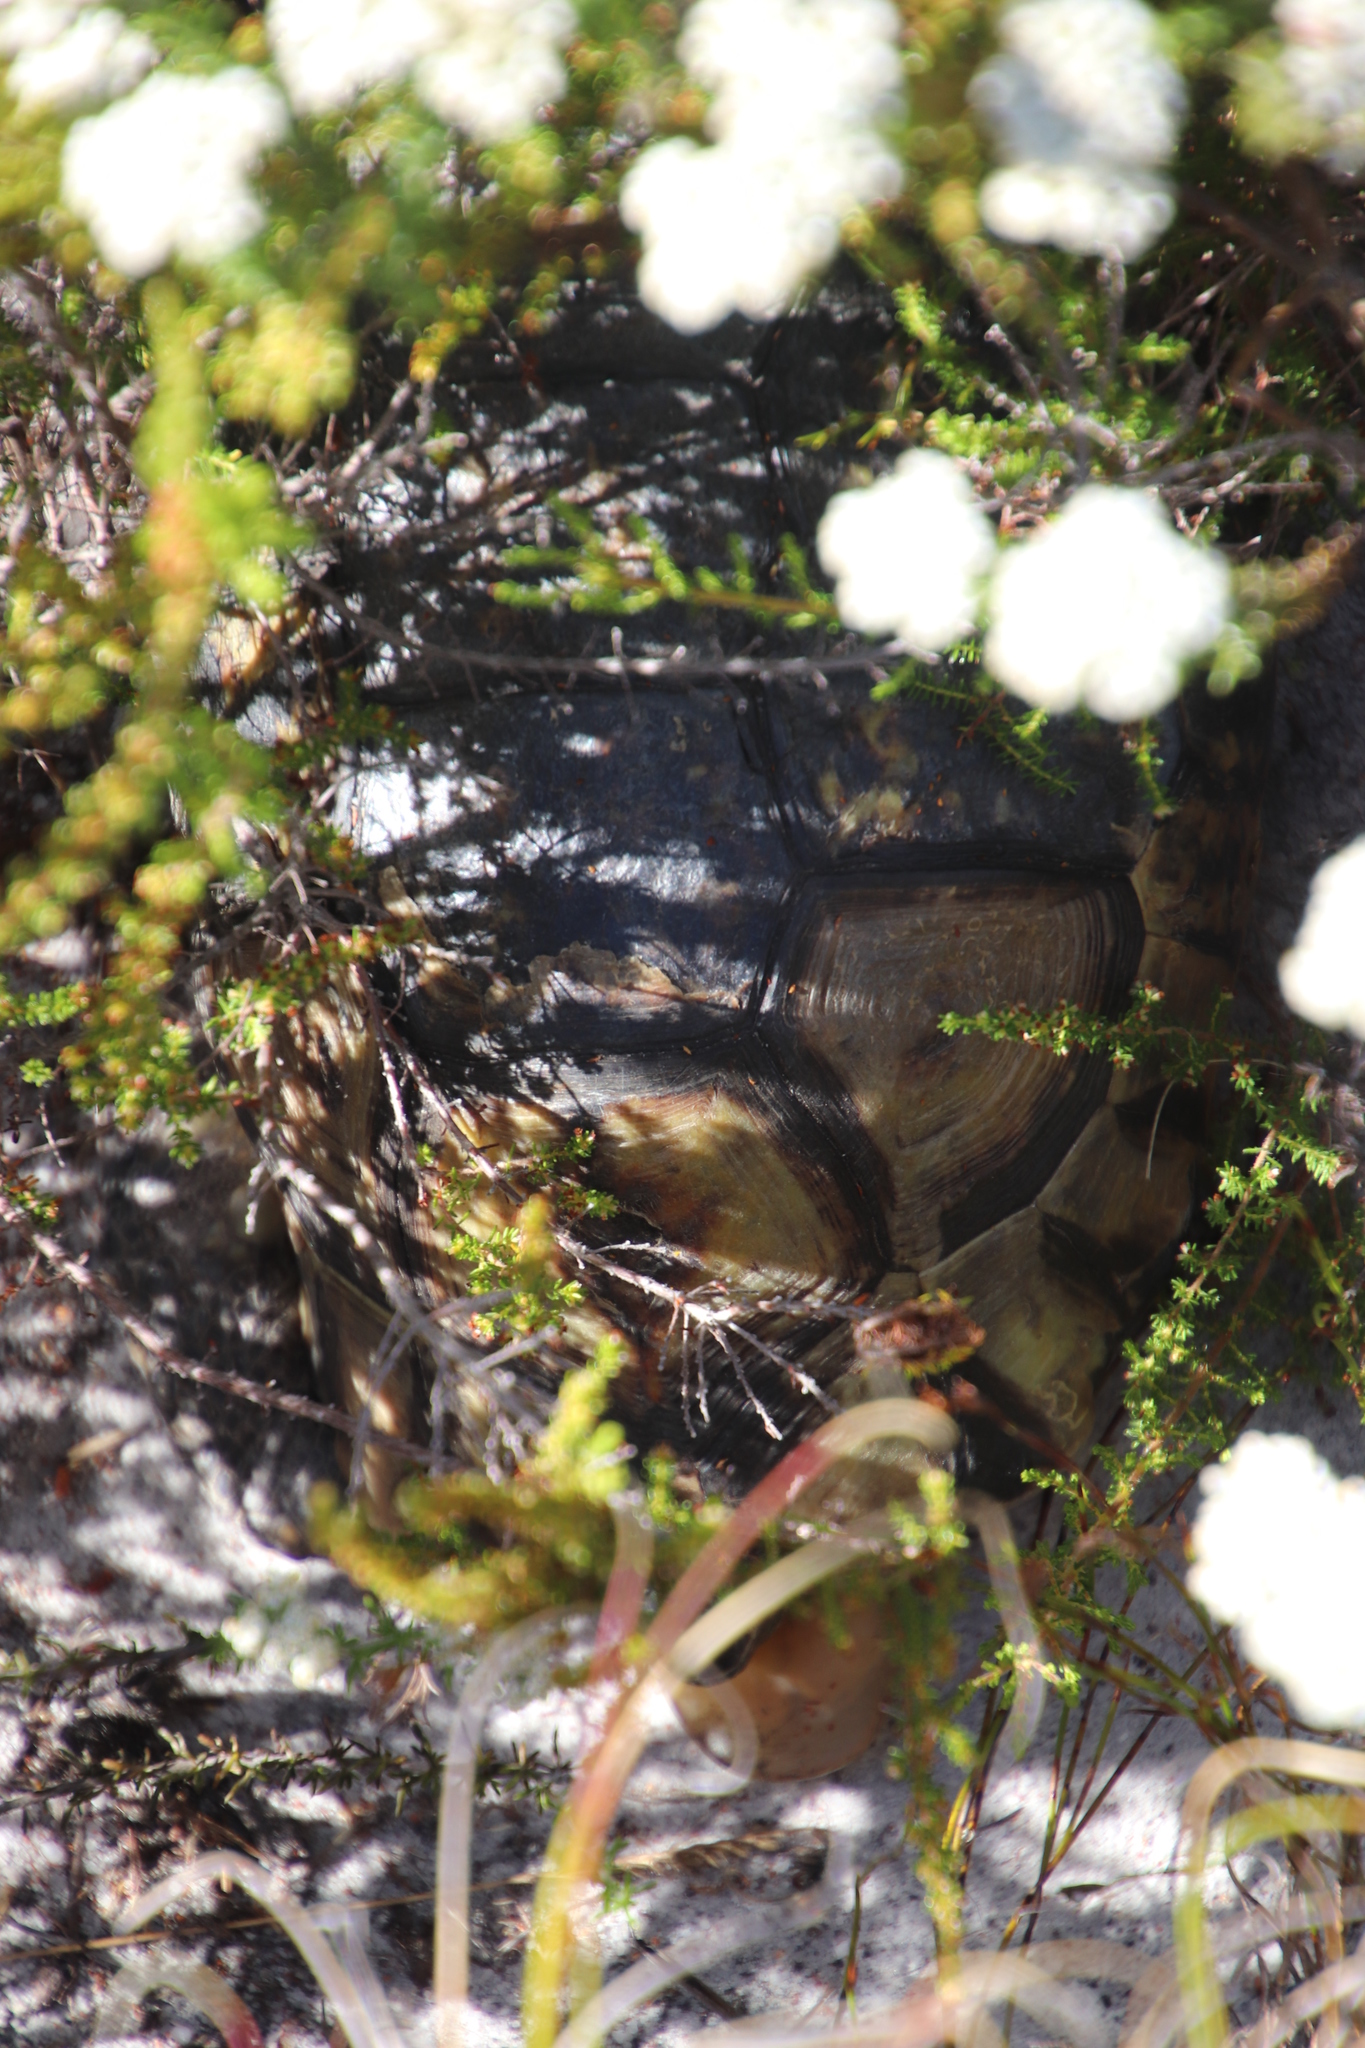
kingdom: Animalia
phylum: Chordata
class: Testudines
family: Testudinidae
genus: Chersina
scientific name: Chersina angulata
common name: South african bowsprit tortoise
